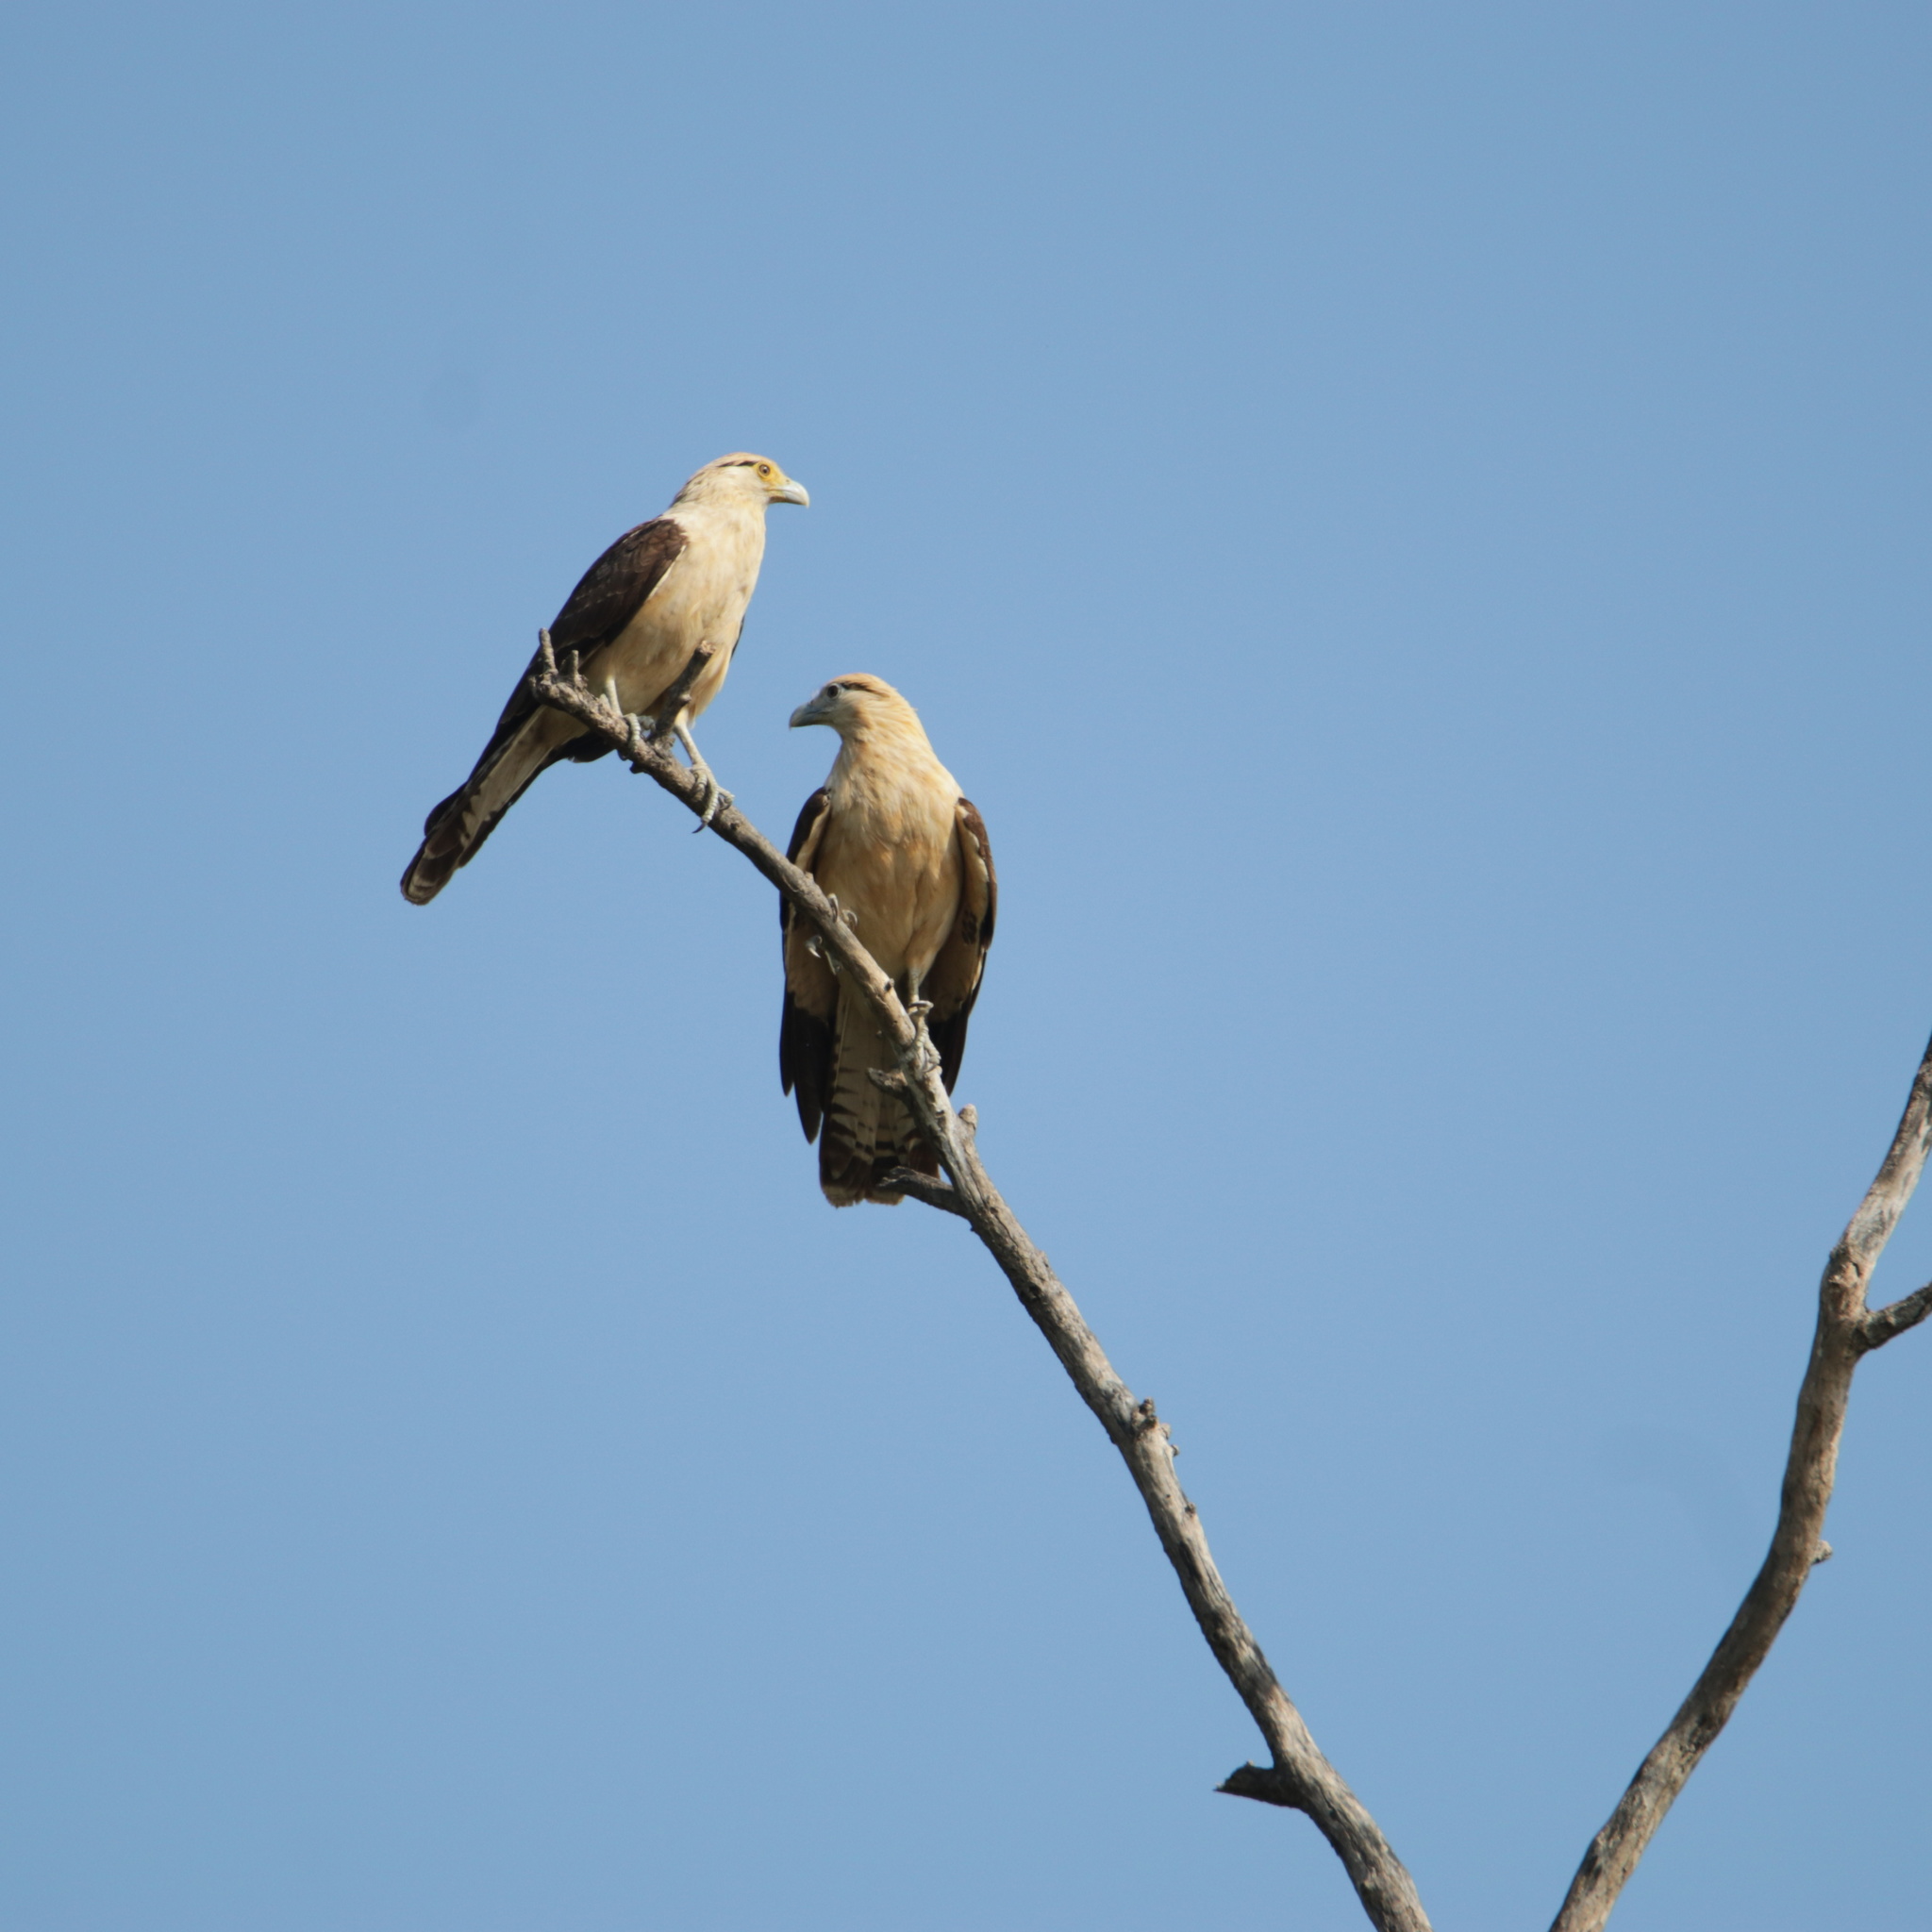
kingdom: Animalia
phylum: Chordata
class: Aves
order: Falconiformes
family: Falconidae
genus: Daptrius
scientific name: Daptrius
